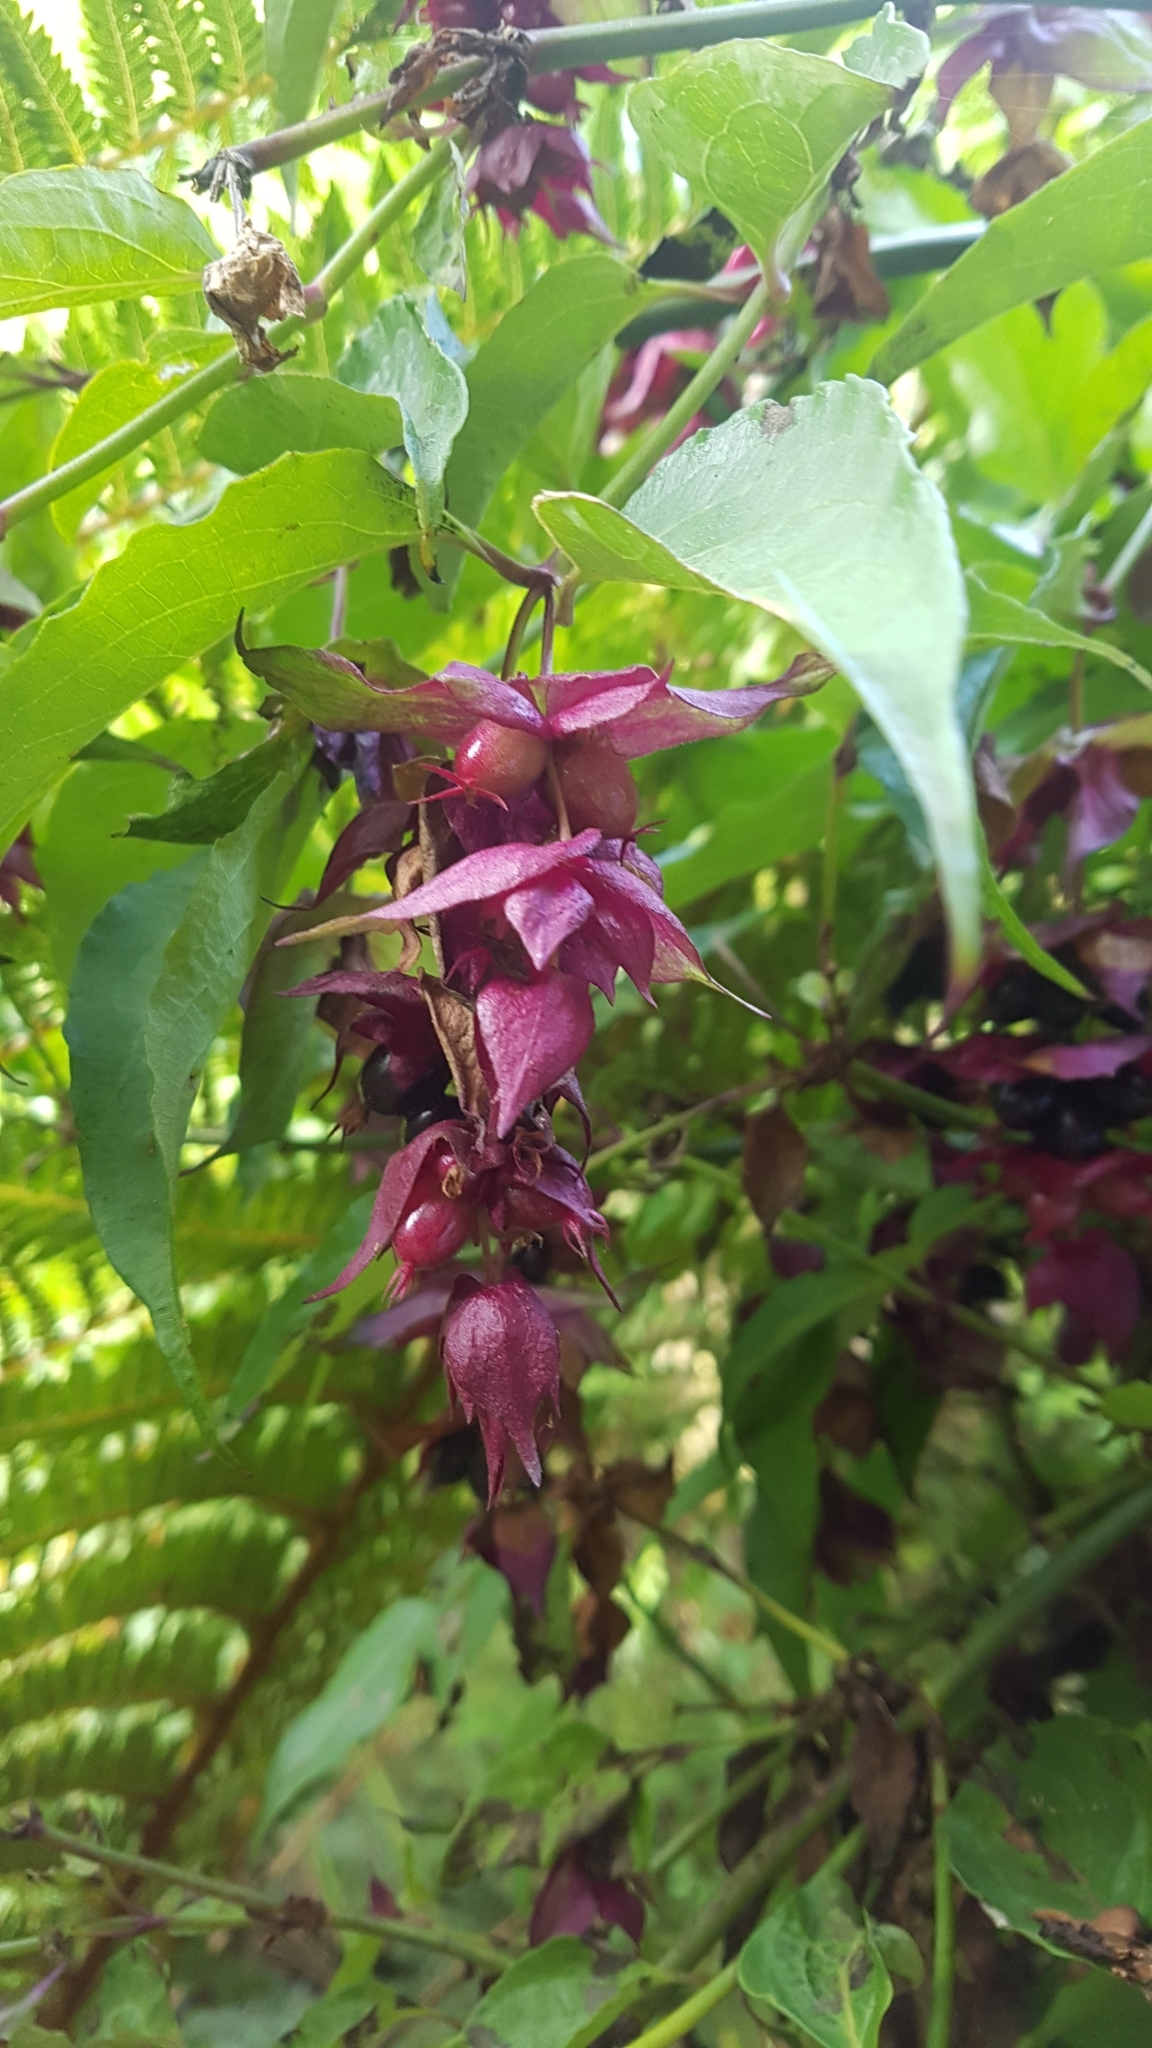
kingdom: Plantae
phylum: Tracheophyta
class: Magnoliopsida
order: Dipsacales
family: Caprifoliaceae
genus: Leycesteria
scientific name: Leycesteria formosa
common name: Himalayan honeysuckle
